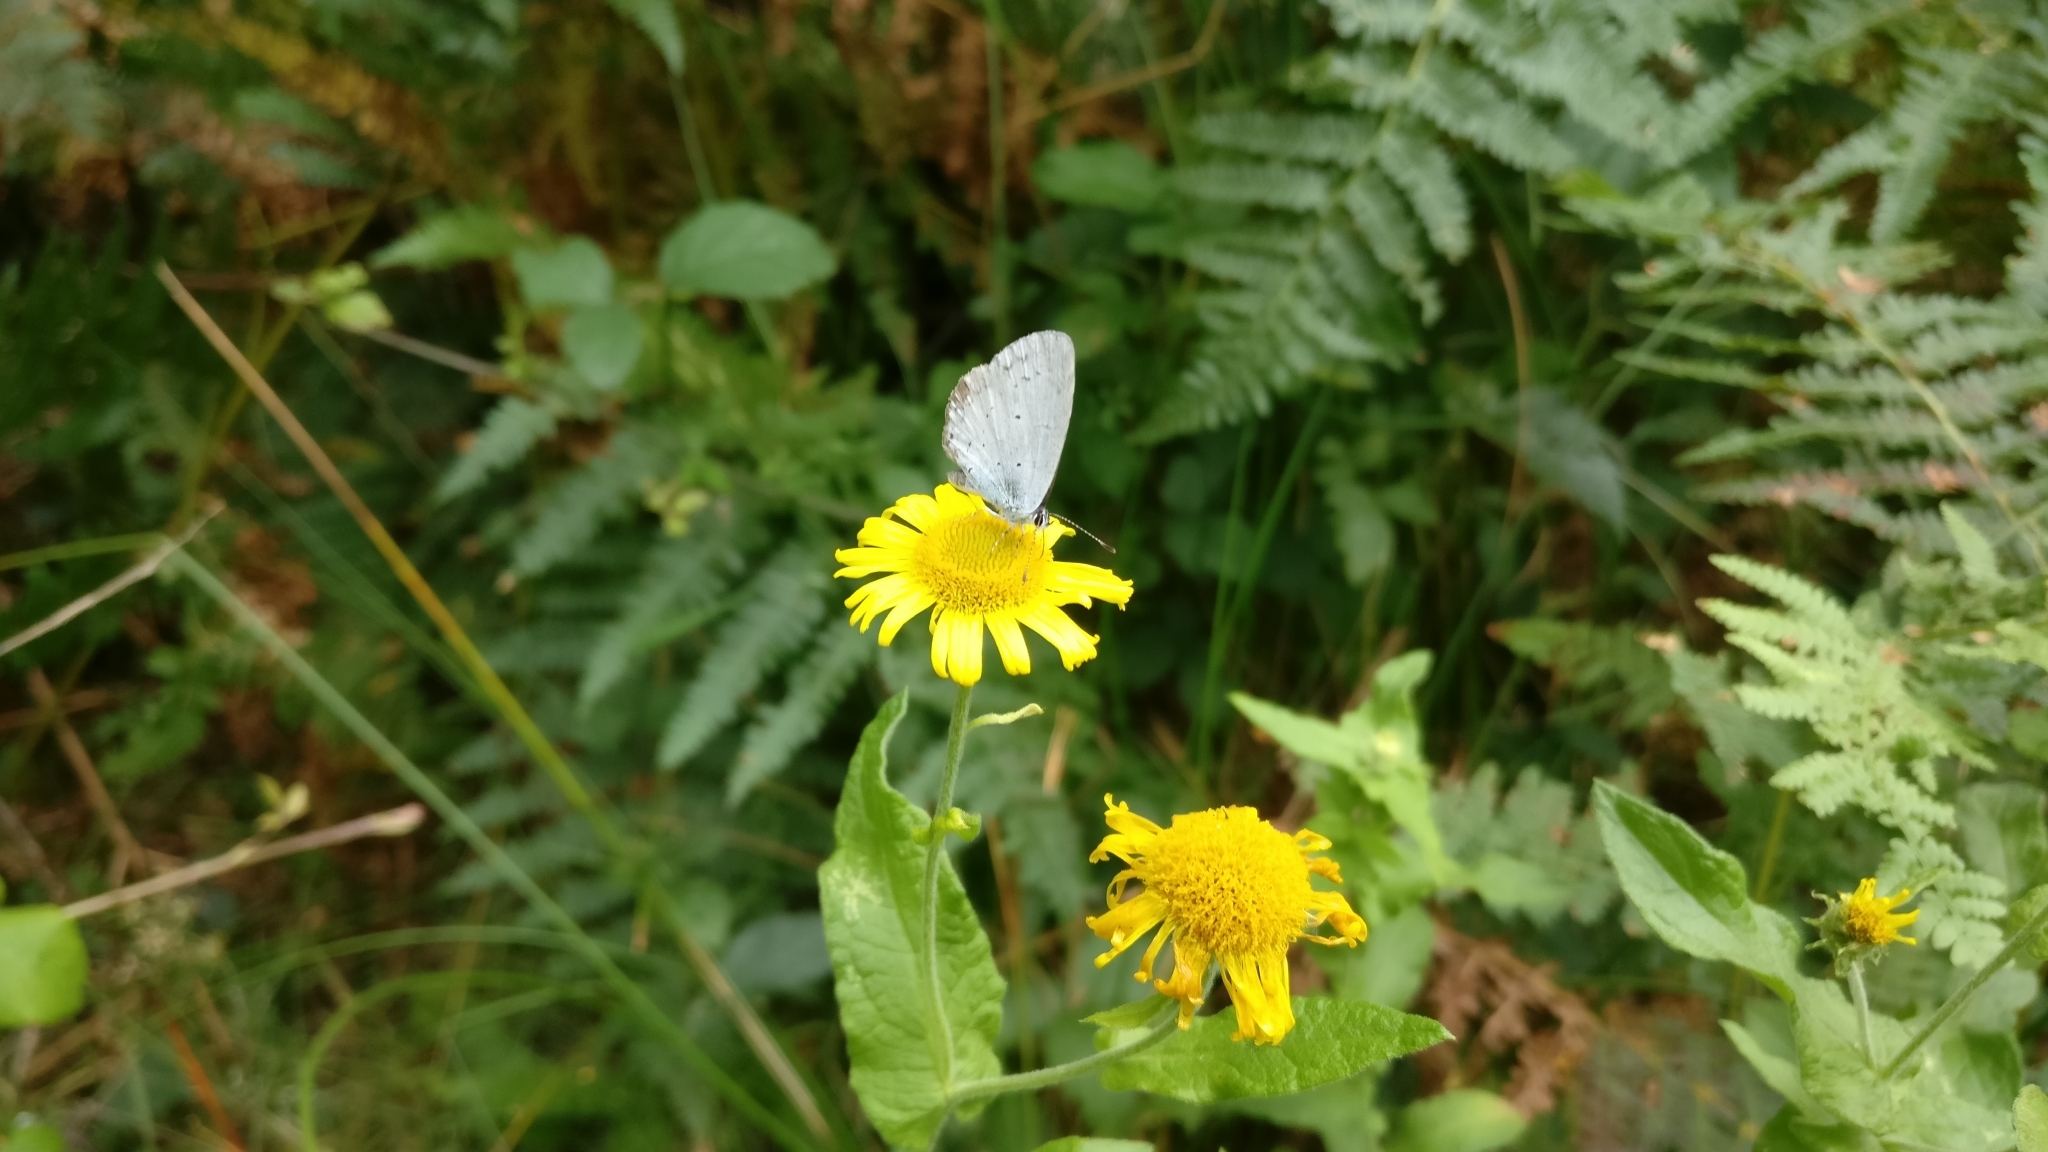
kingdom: Animalia
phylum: Arthropoda
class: Insecta
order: Lepidoptera
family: Lycaenidae
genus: Celastrina
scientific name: Celastrina argiolus
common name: Holly blue
